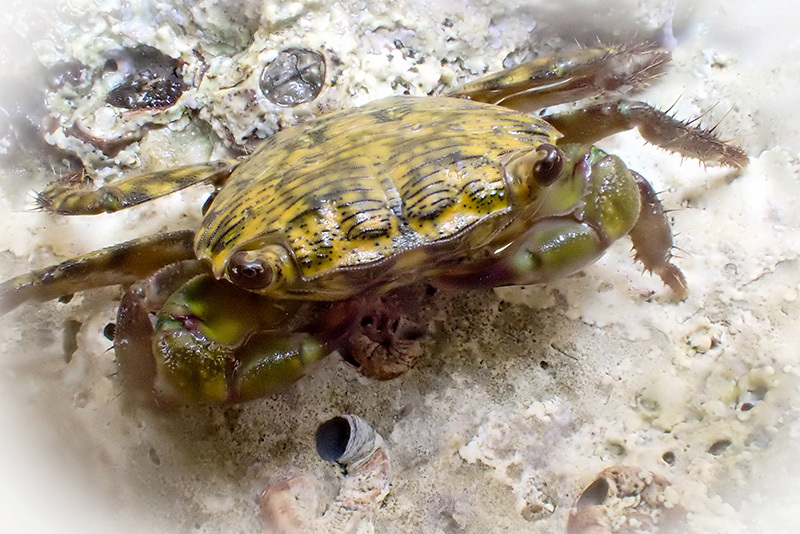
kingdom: Animalia
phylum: Arthropoda
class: Malacostraca
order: Decapoda
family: Grapsidae
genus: Pachygrapsus
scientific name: Pachygrapsus transversus
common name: Mottled shore crab
